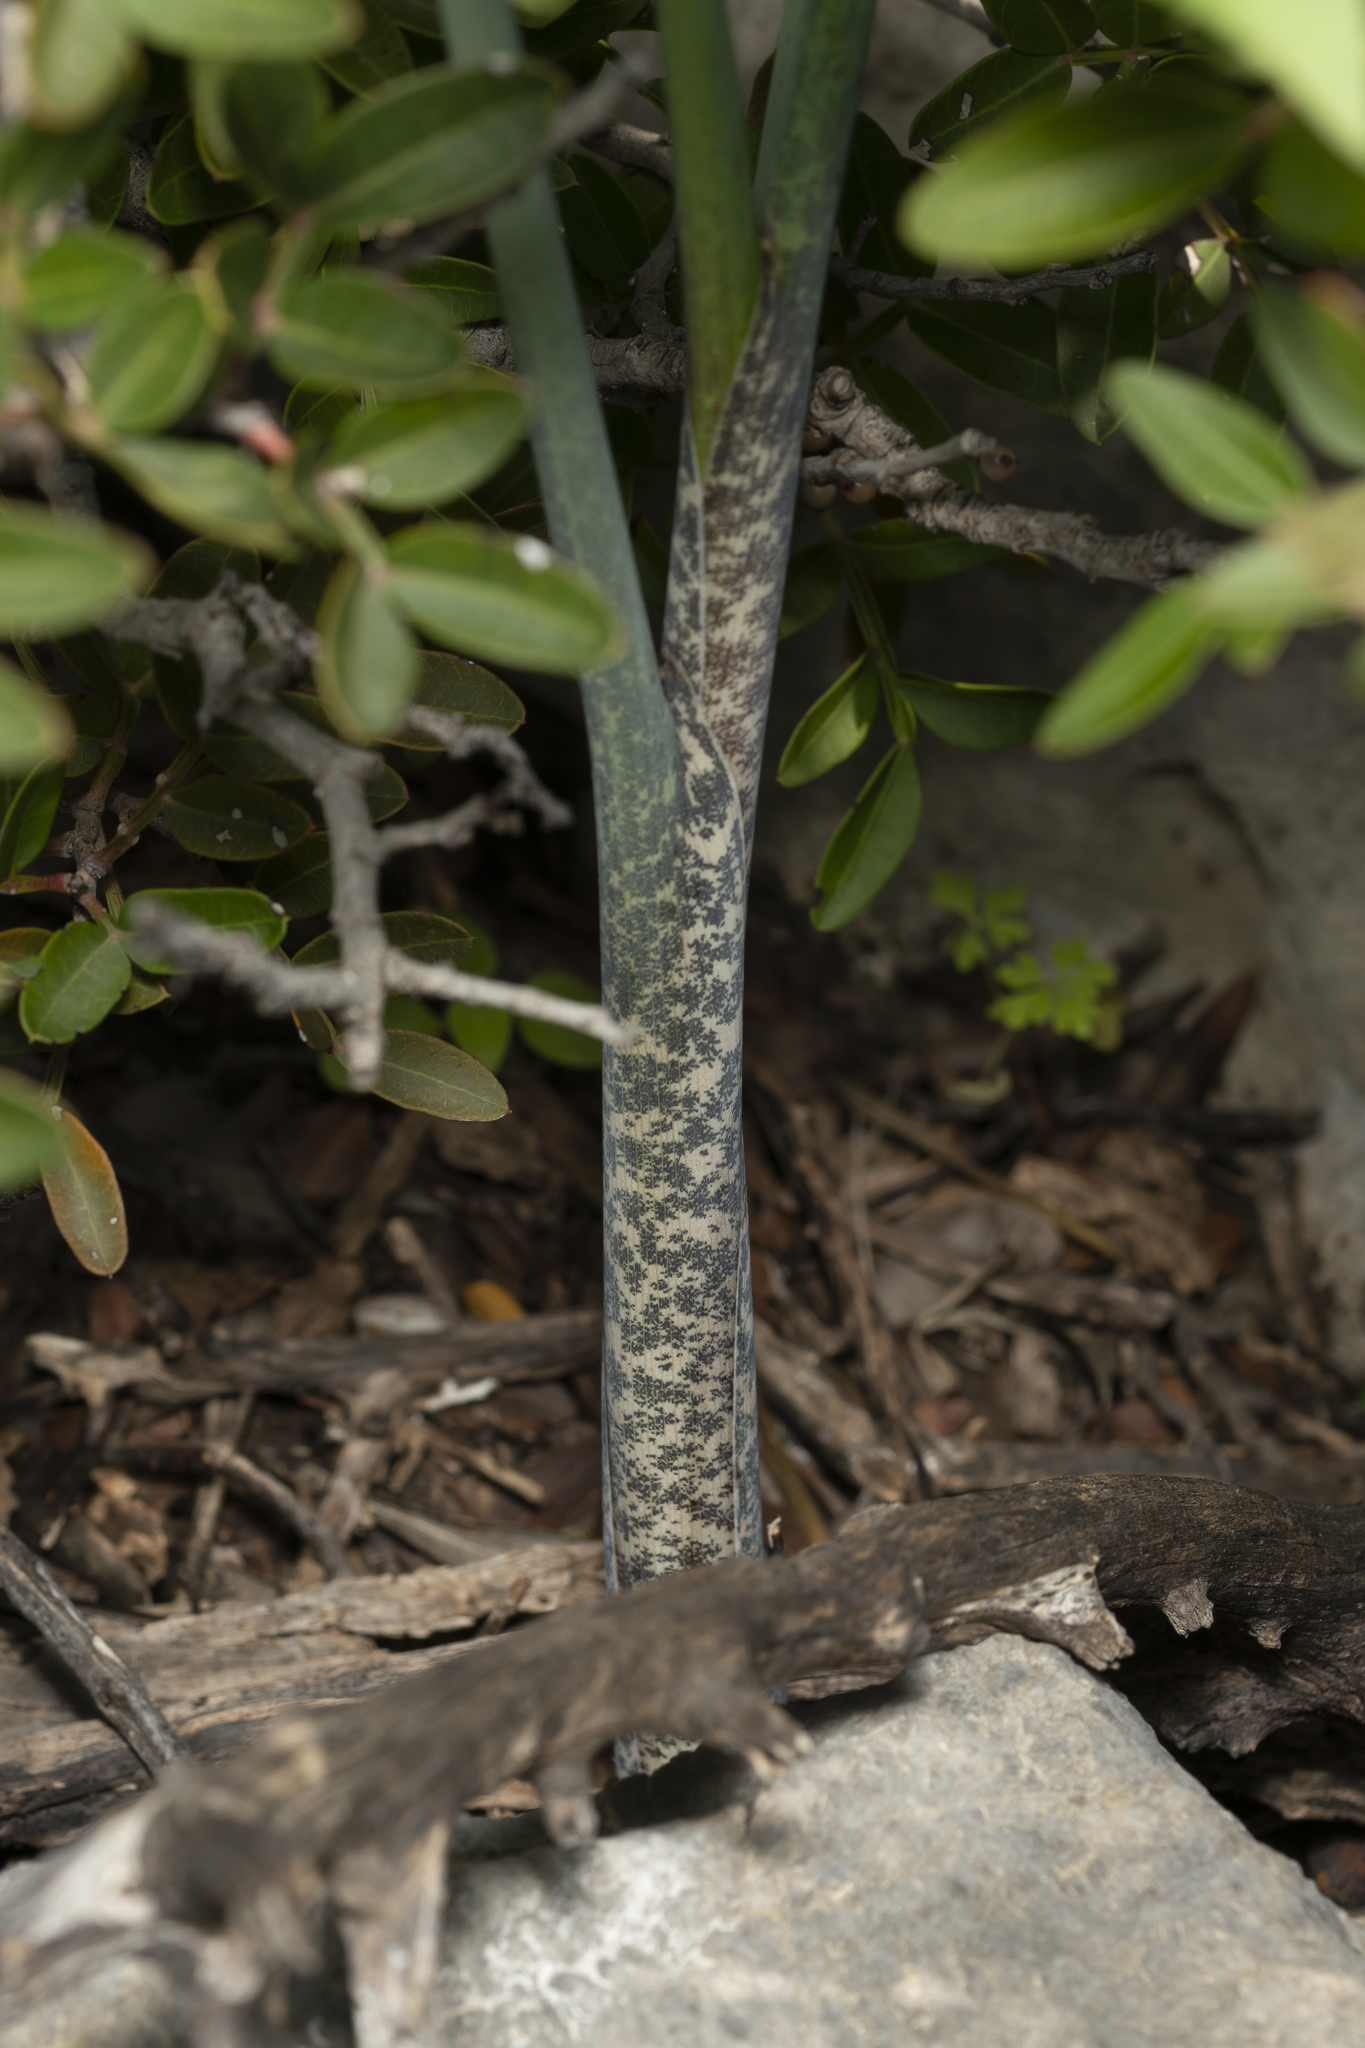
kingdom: Plantae
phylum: Tracheophyta
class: Liliopsida
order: Alismatales
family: Araceae
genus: Dracunculus
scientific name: Dracunculus vulgaris
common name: Dragon arum
